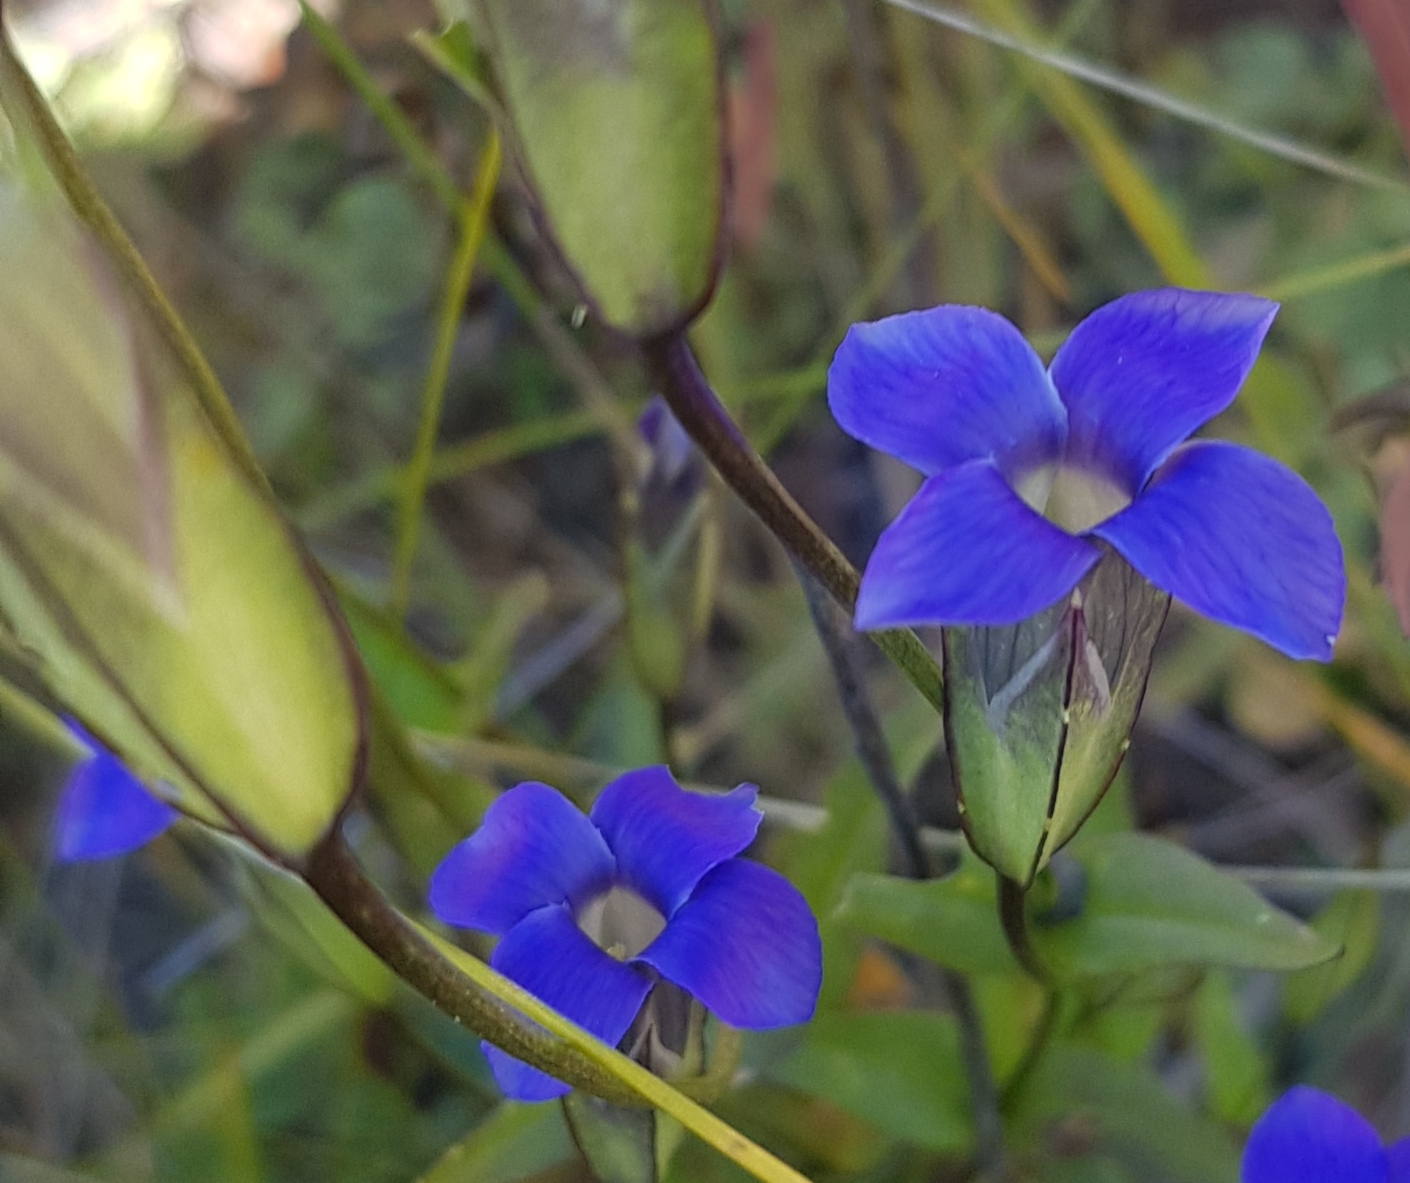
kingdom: Plantae
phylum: Tracheophyta
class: Magnoliopsida
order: Gentianales
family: Gentianaceae
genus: Gentianopsis
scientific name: Gentianopsis barbata
